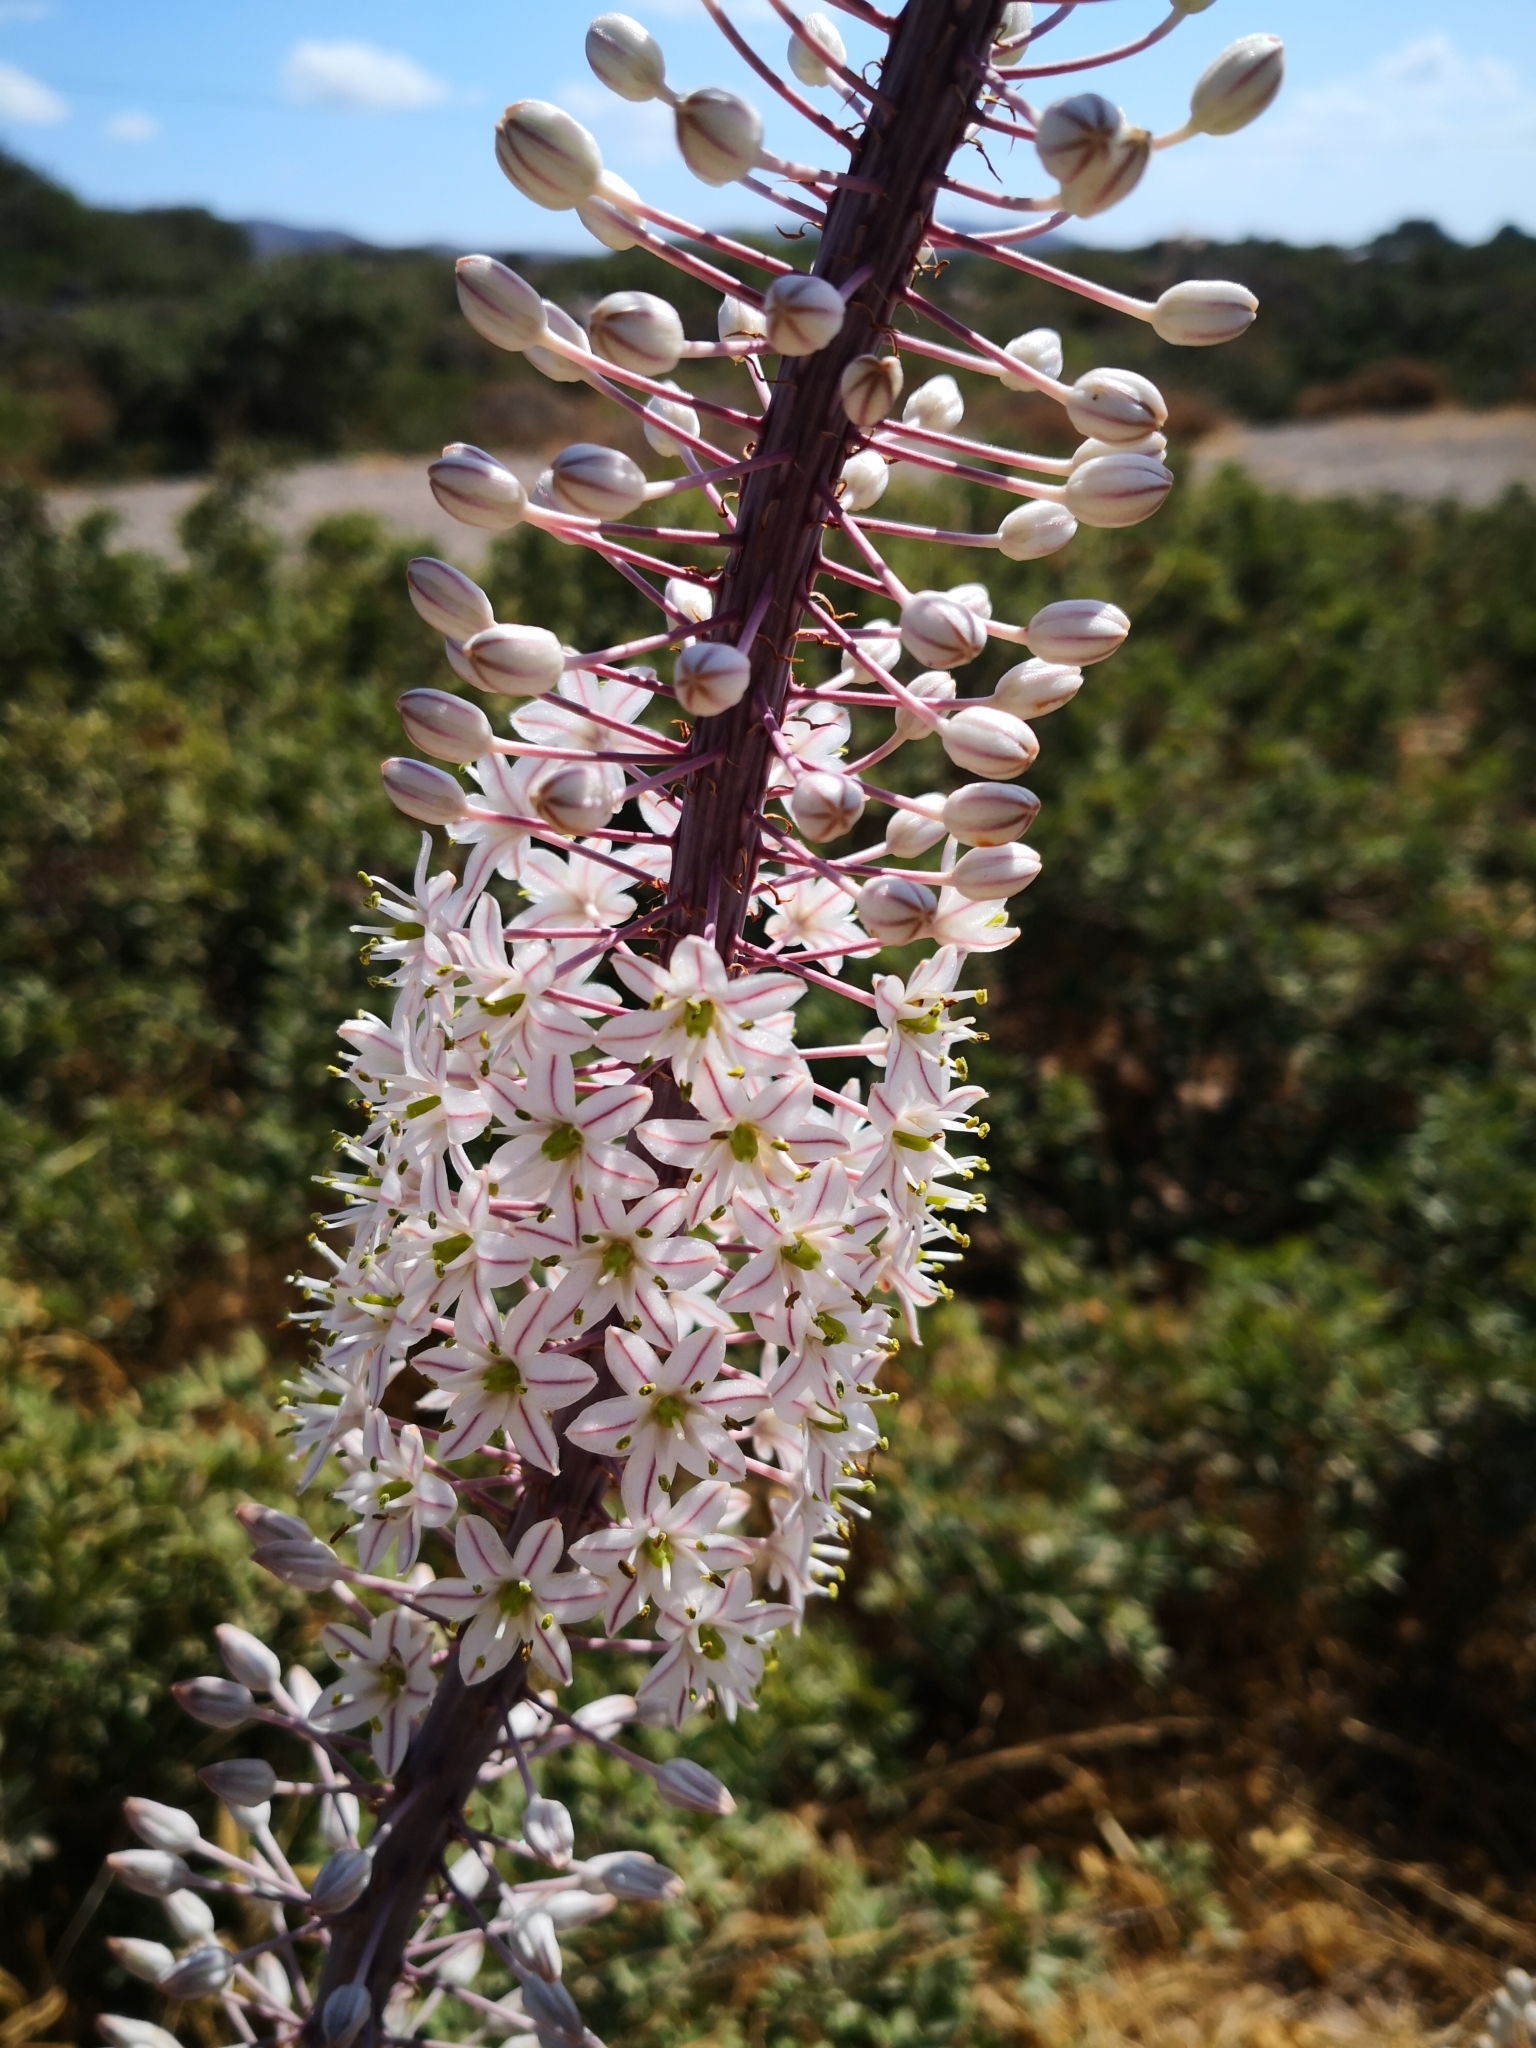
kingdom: Plantae
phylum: Tracheophyta
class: Liliopsida
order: Asparagales
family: Asparagaceae
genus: Drimia
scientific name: Drimia numidica
